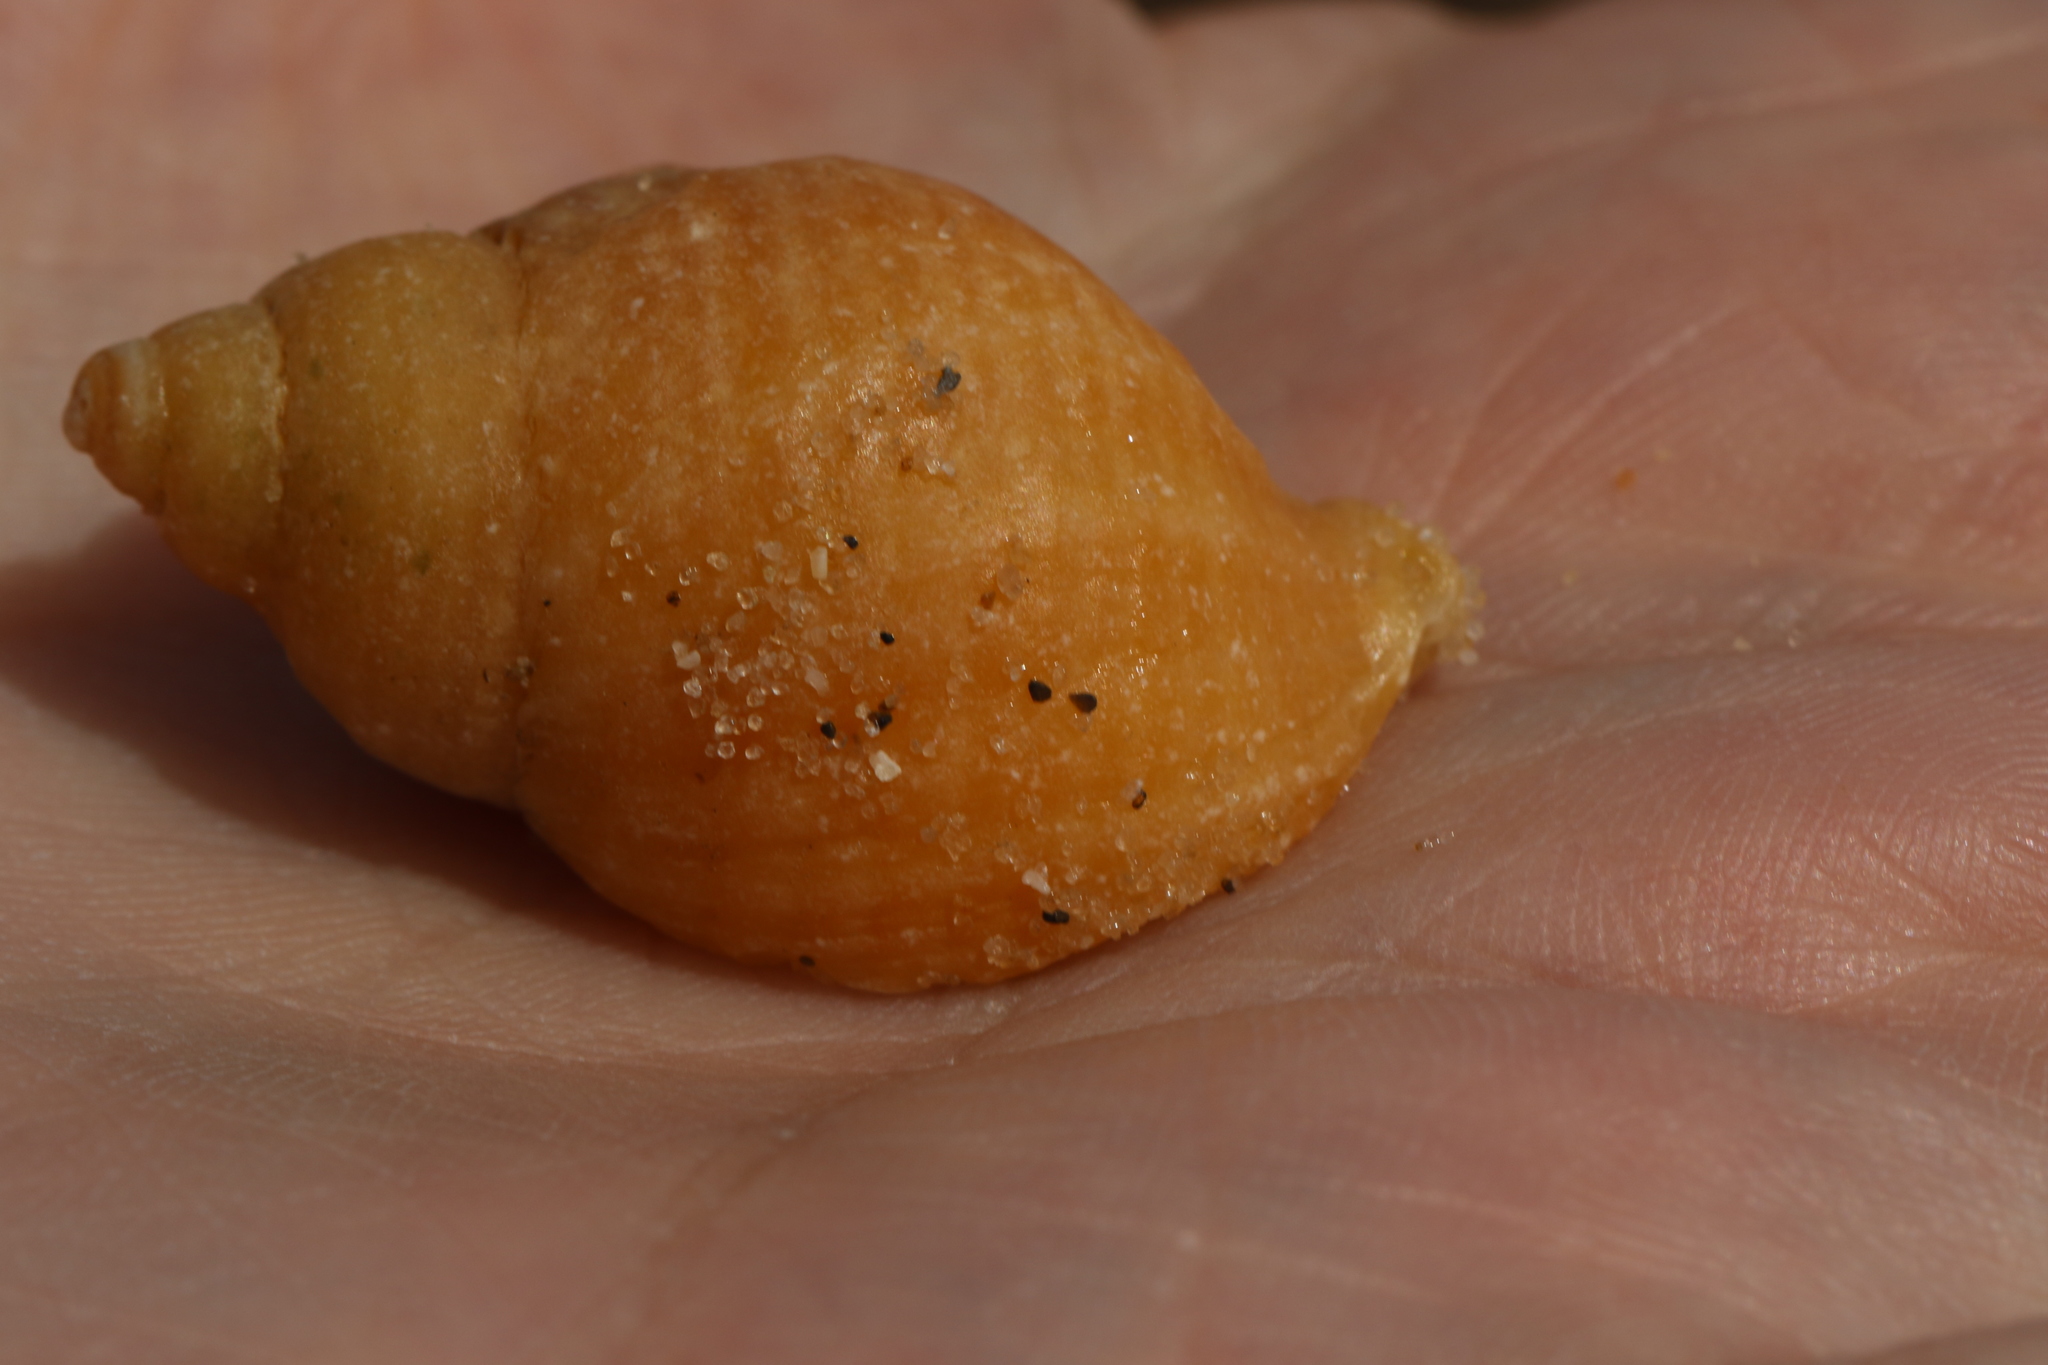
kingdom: Animalia
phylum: Mollusca
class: Gastropoda
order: Neogastropoda
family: Muricidae
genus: Nucella
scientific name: Nucella lapillus
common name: Dog whelk
